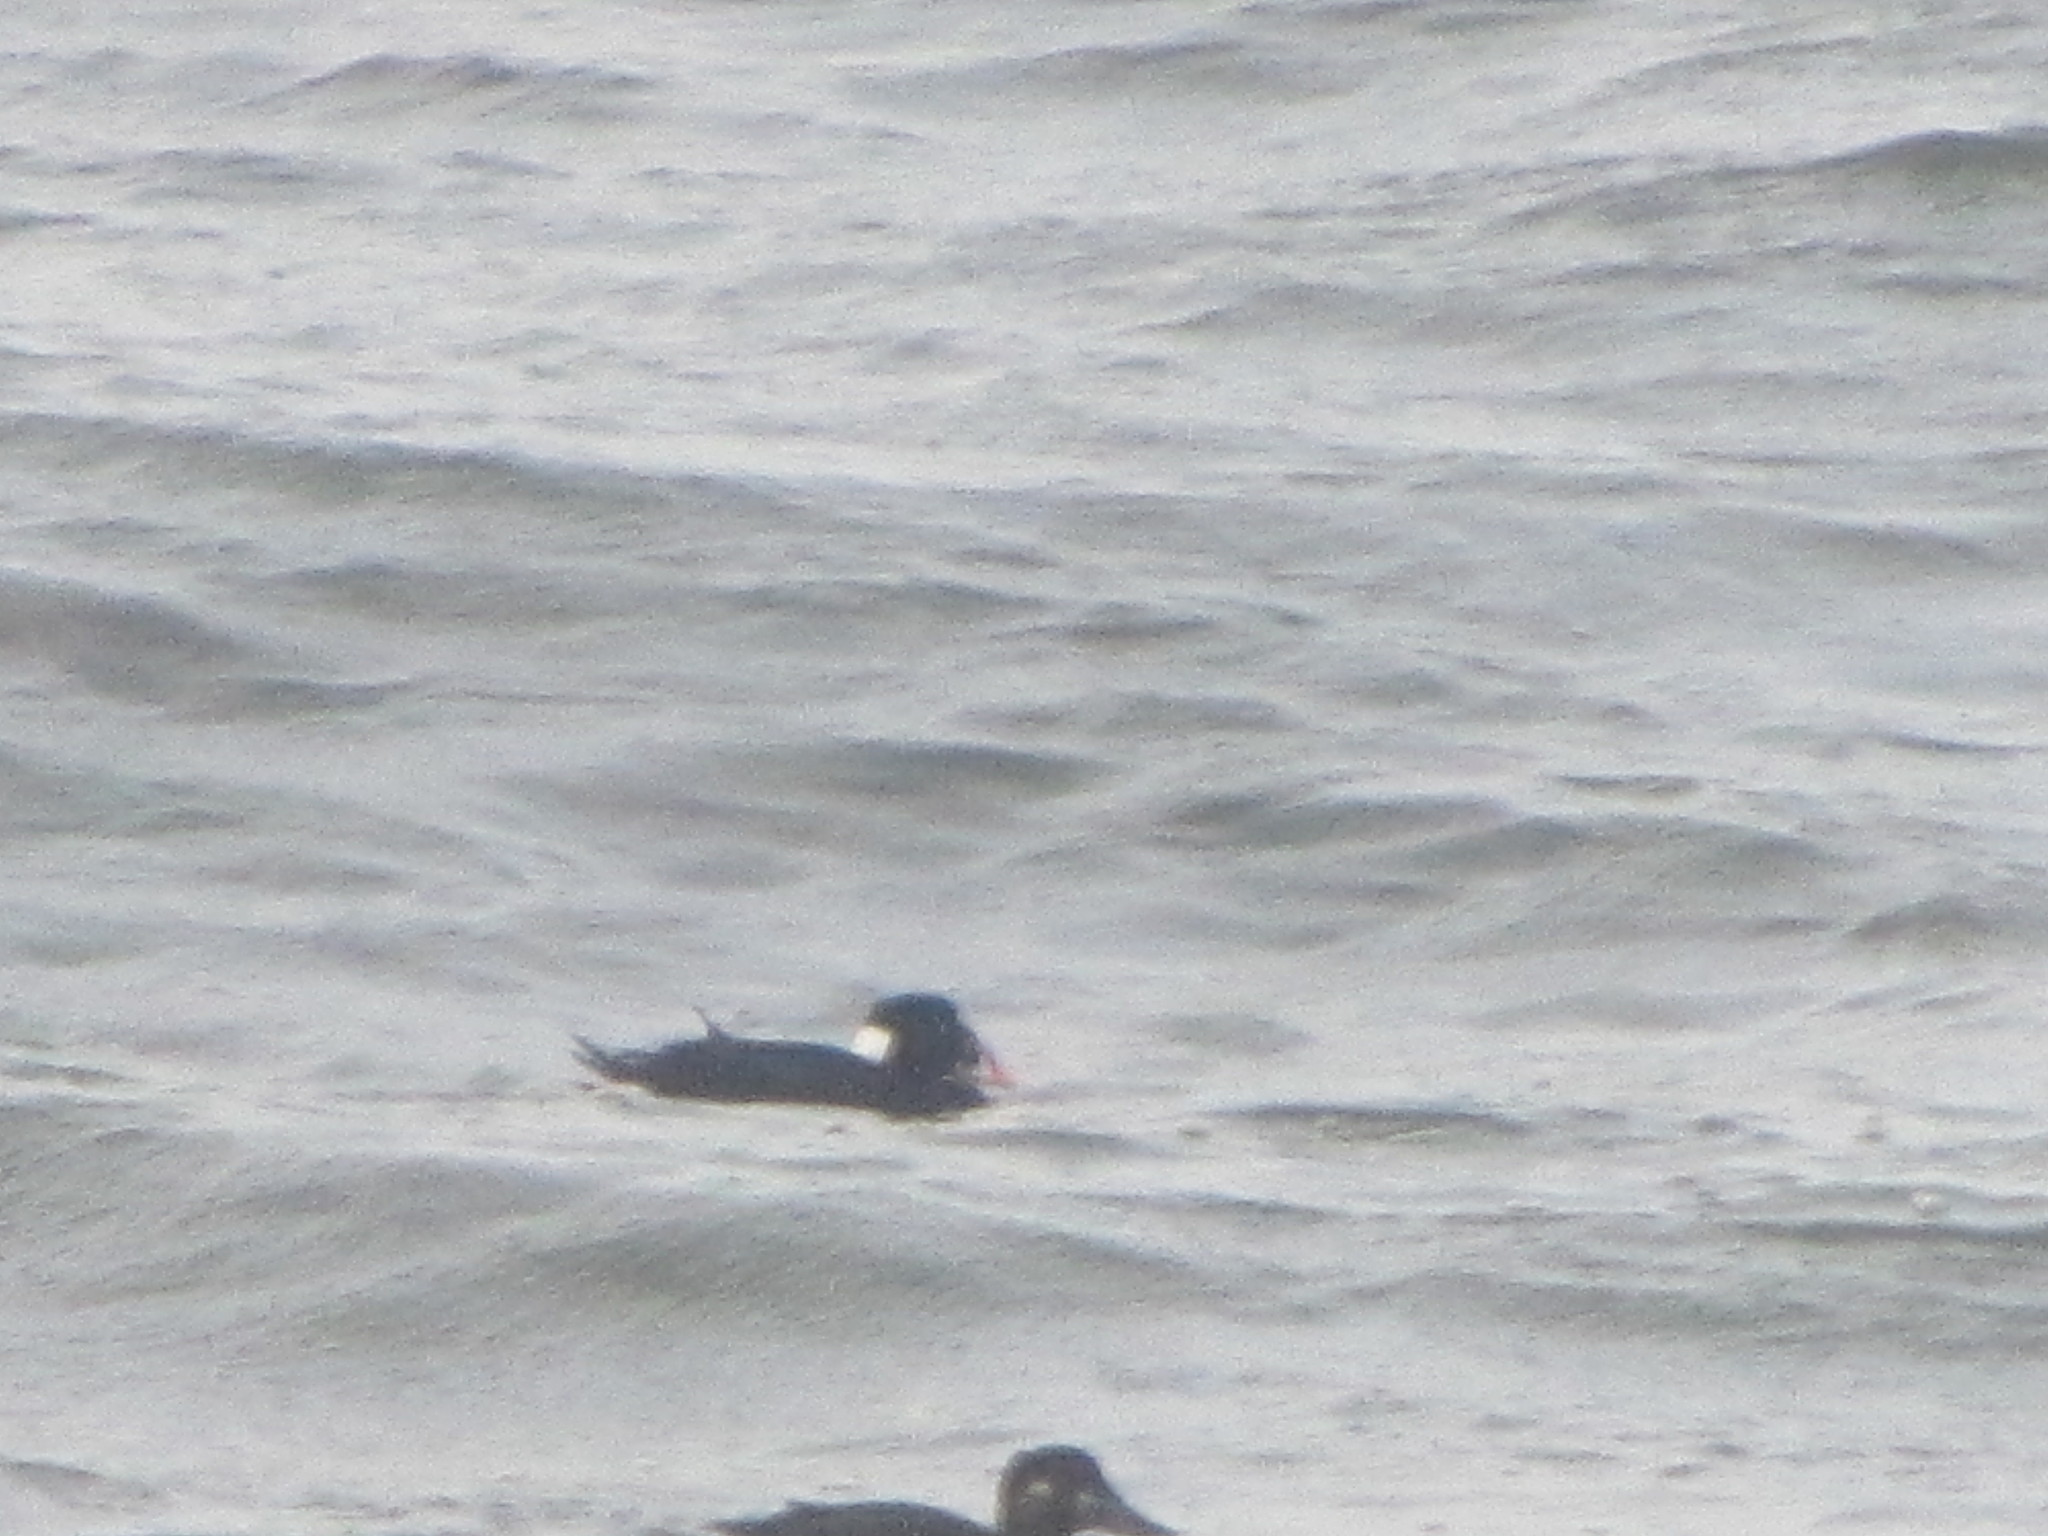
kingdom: Animalia
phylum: Chordata
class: Aves
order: Anseriformes
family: Anatidae
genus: Melanitta
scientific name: Melanitta perspicillata
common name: Surf scoter
